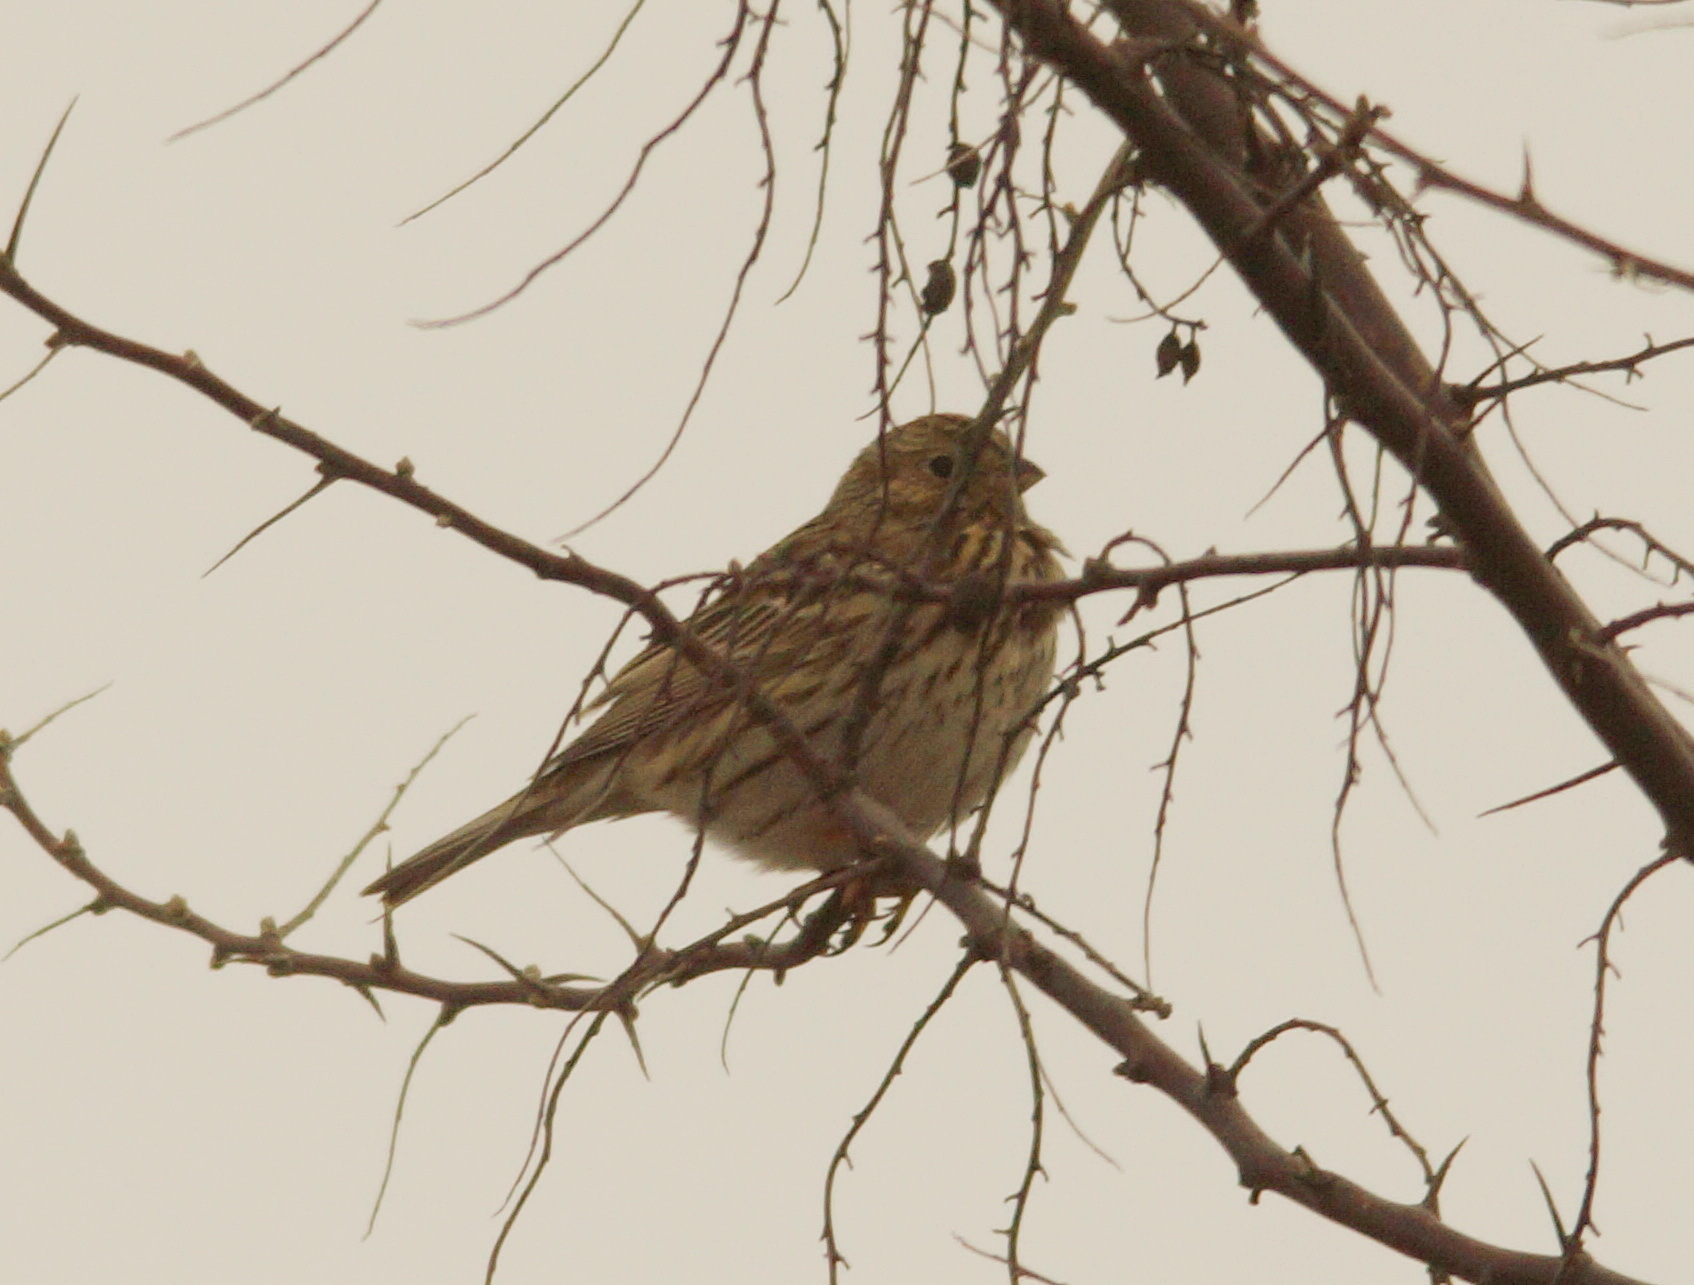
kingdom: Animalia
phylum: Chordata
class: Aves
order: Passeriformes
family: Emberizidae
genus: Emberiza
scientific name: Emberiza calandra
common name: Corn bunting
